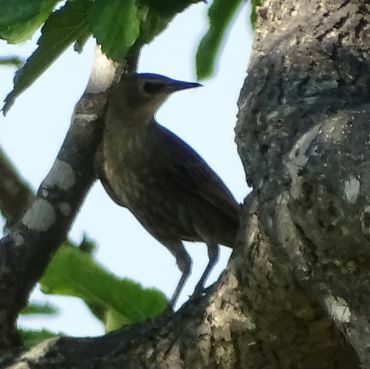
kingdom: Animalia
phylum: Chordata
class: Aves
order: Passeriformes
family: Sturnidae
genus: Sturnus
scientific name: Sturnus vulgaris
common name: Common starling
